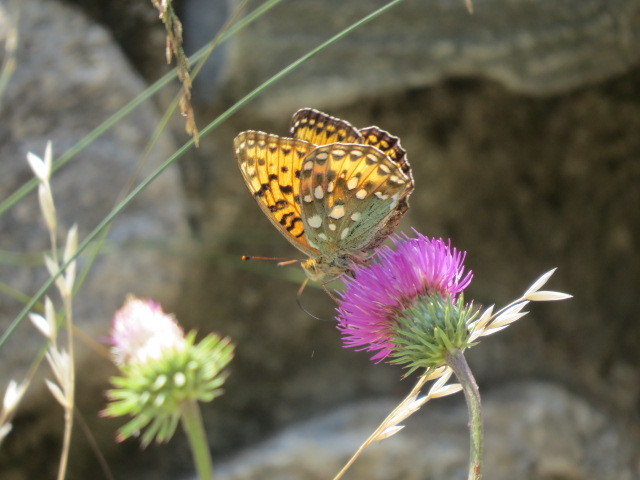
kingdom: Animalia
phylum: Arthropoda
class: Insecta
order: Lepidoptera
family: Nymphalidae
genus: Speyeria
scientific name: Speyeria aglaja
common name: Dark green fritillary
